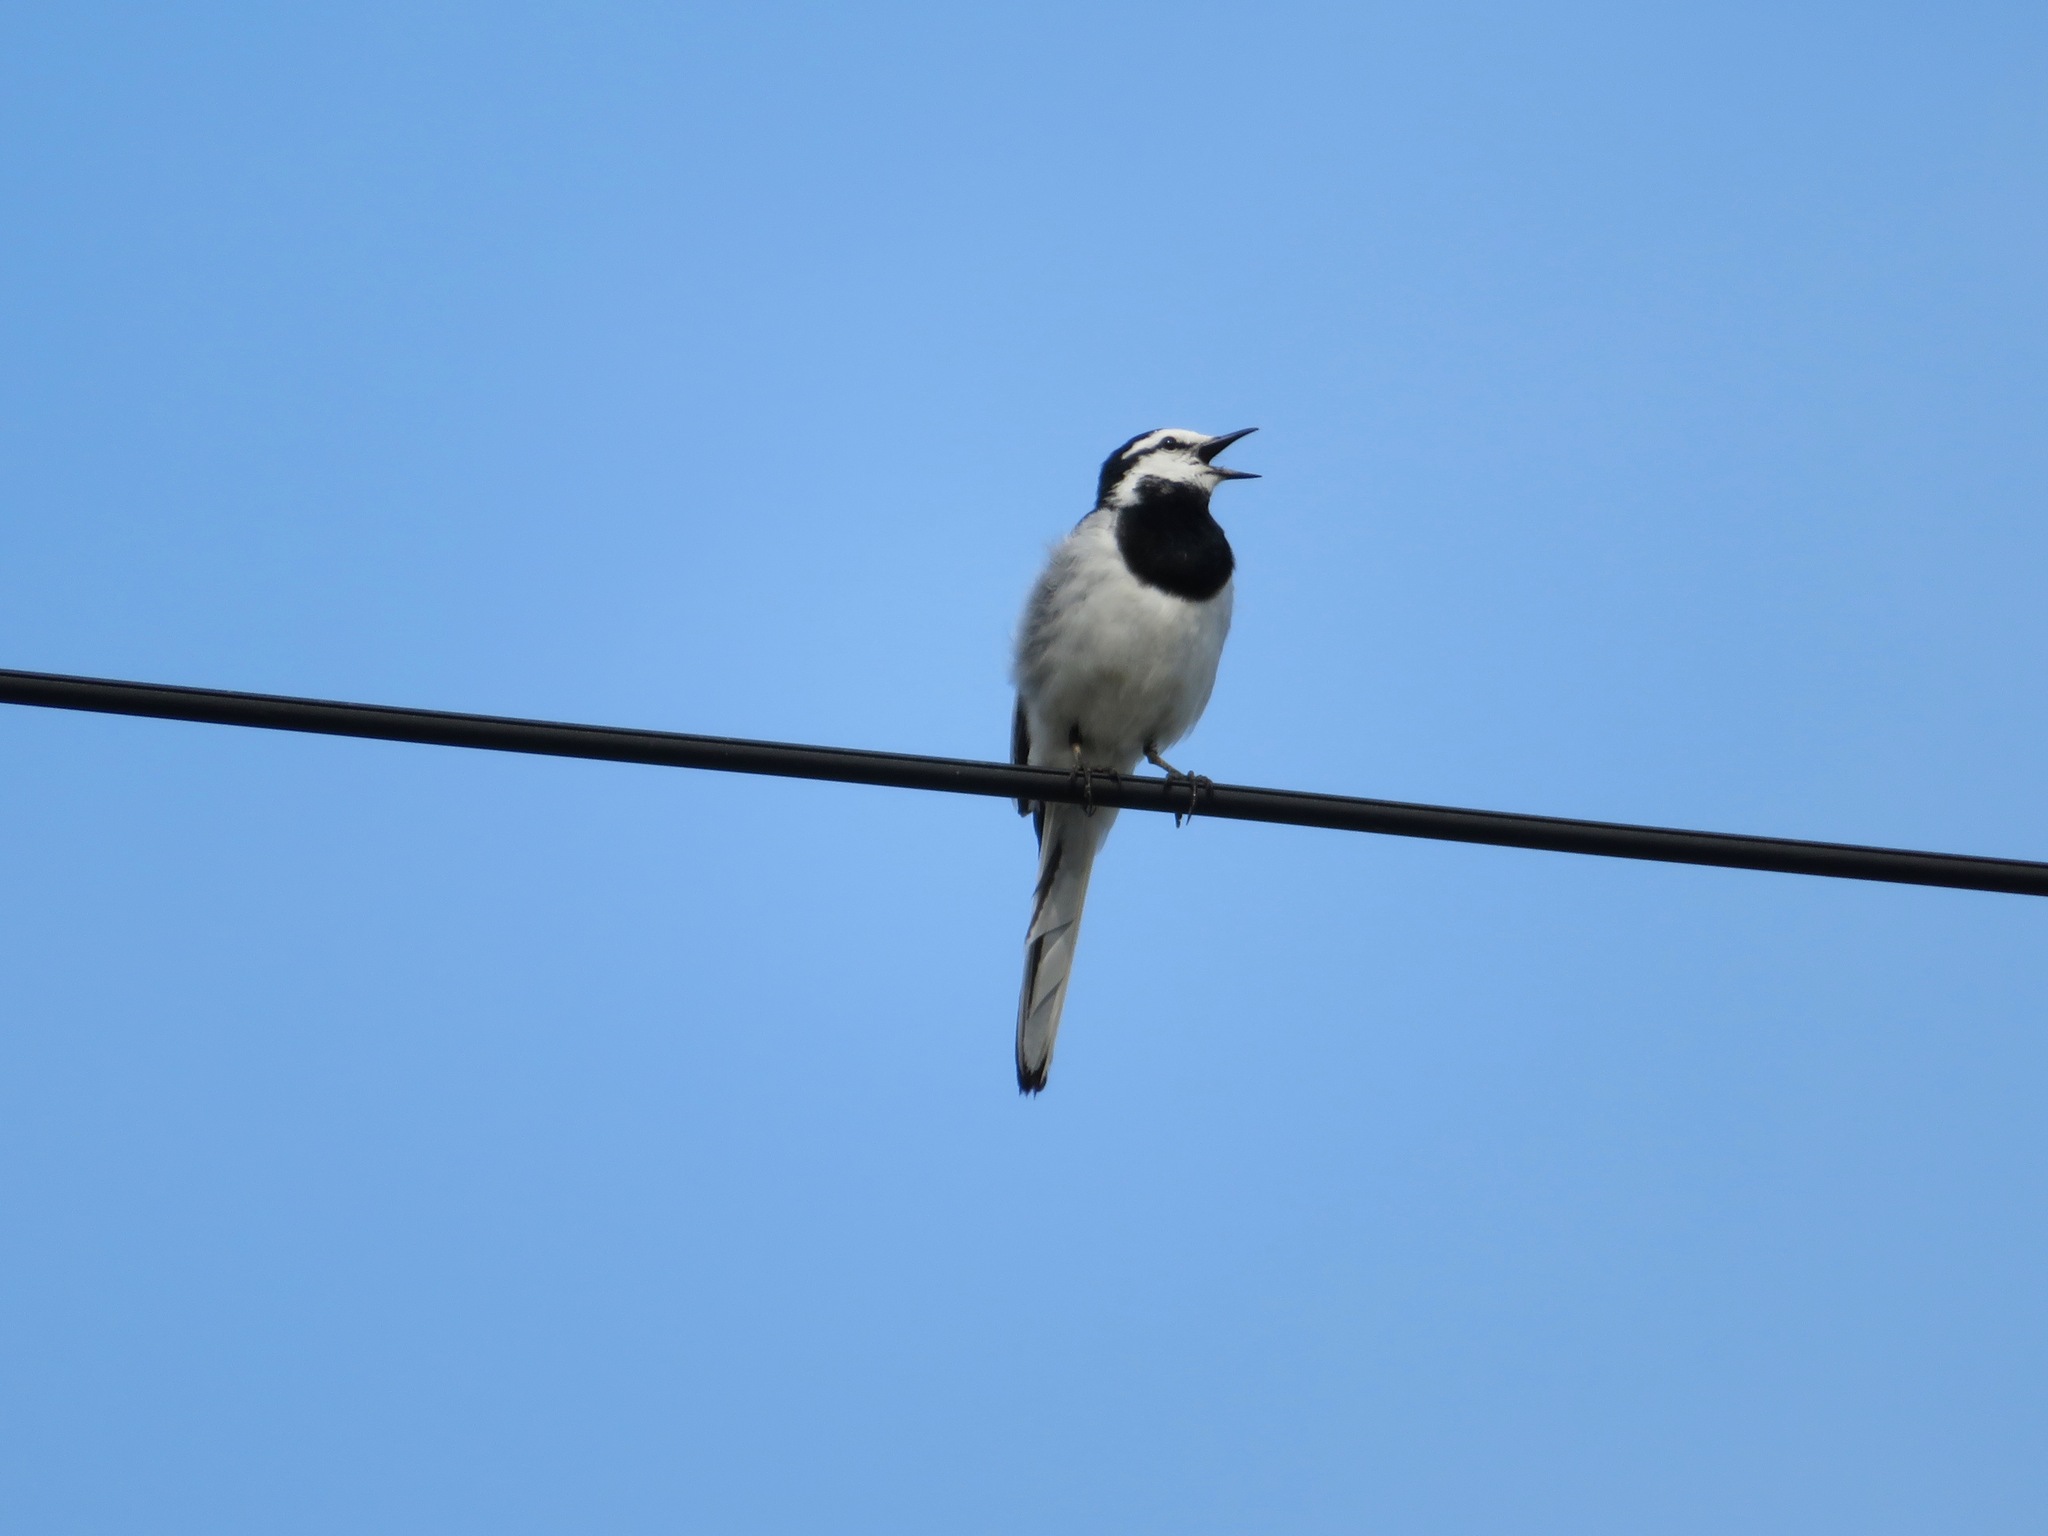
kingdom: Animalia
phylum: Chordata
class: Aves
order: Passeriformes
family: Motacillidae
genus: Motacilla
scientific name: Motacilla alba
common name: White wagtail
